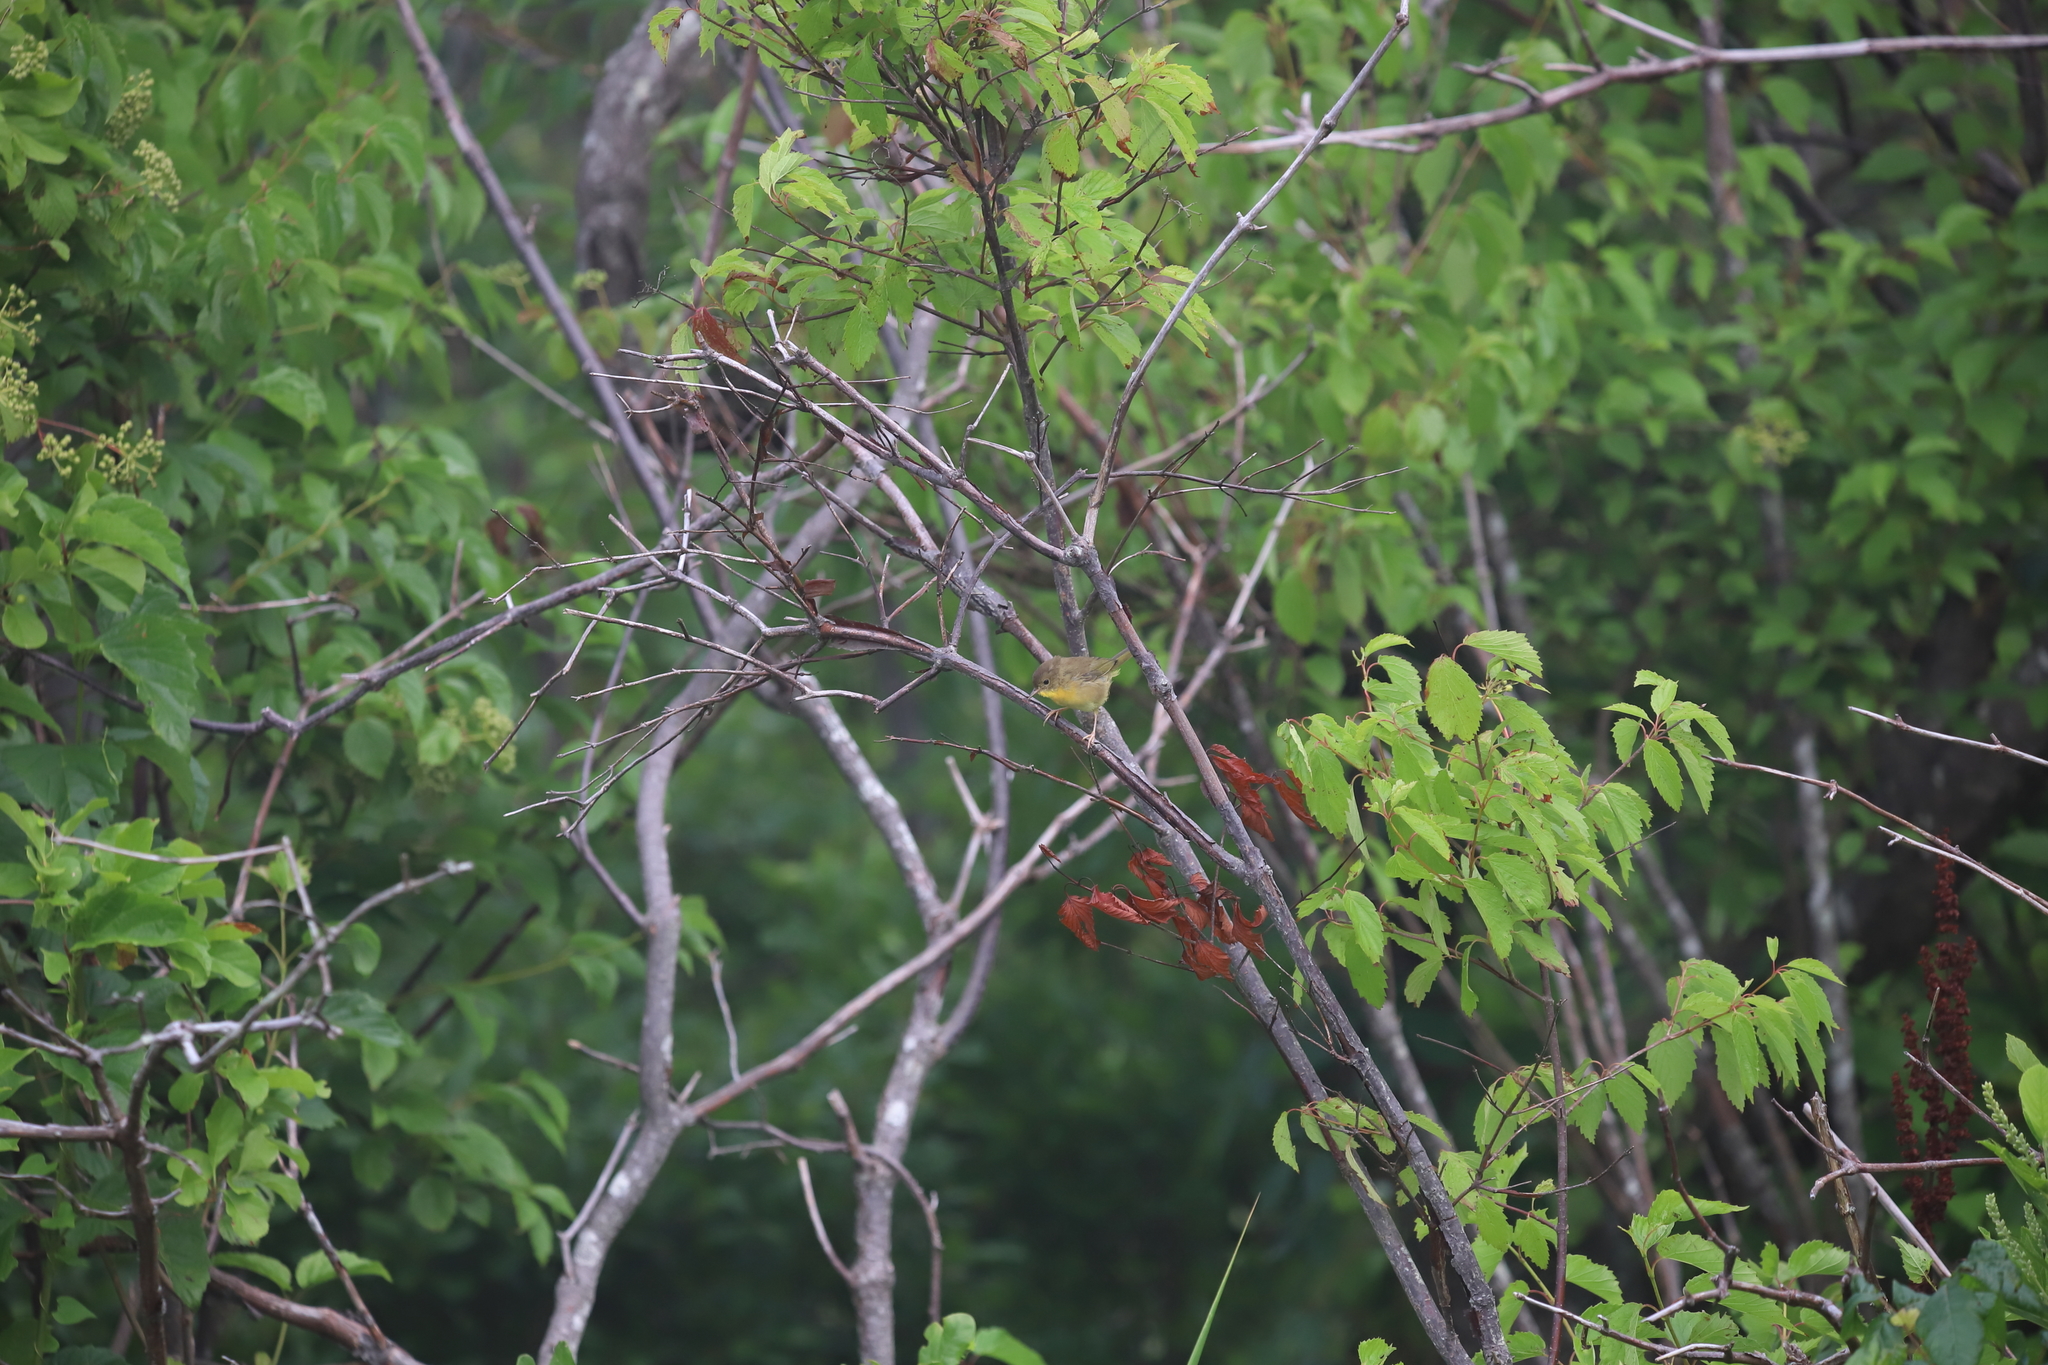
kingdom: Animalia
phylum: Chordata
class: Aves
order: Passeriformes
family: Parulidae
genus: Geothlypis
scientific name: Geothlypis trichas
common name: Common yellowthroat
